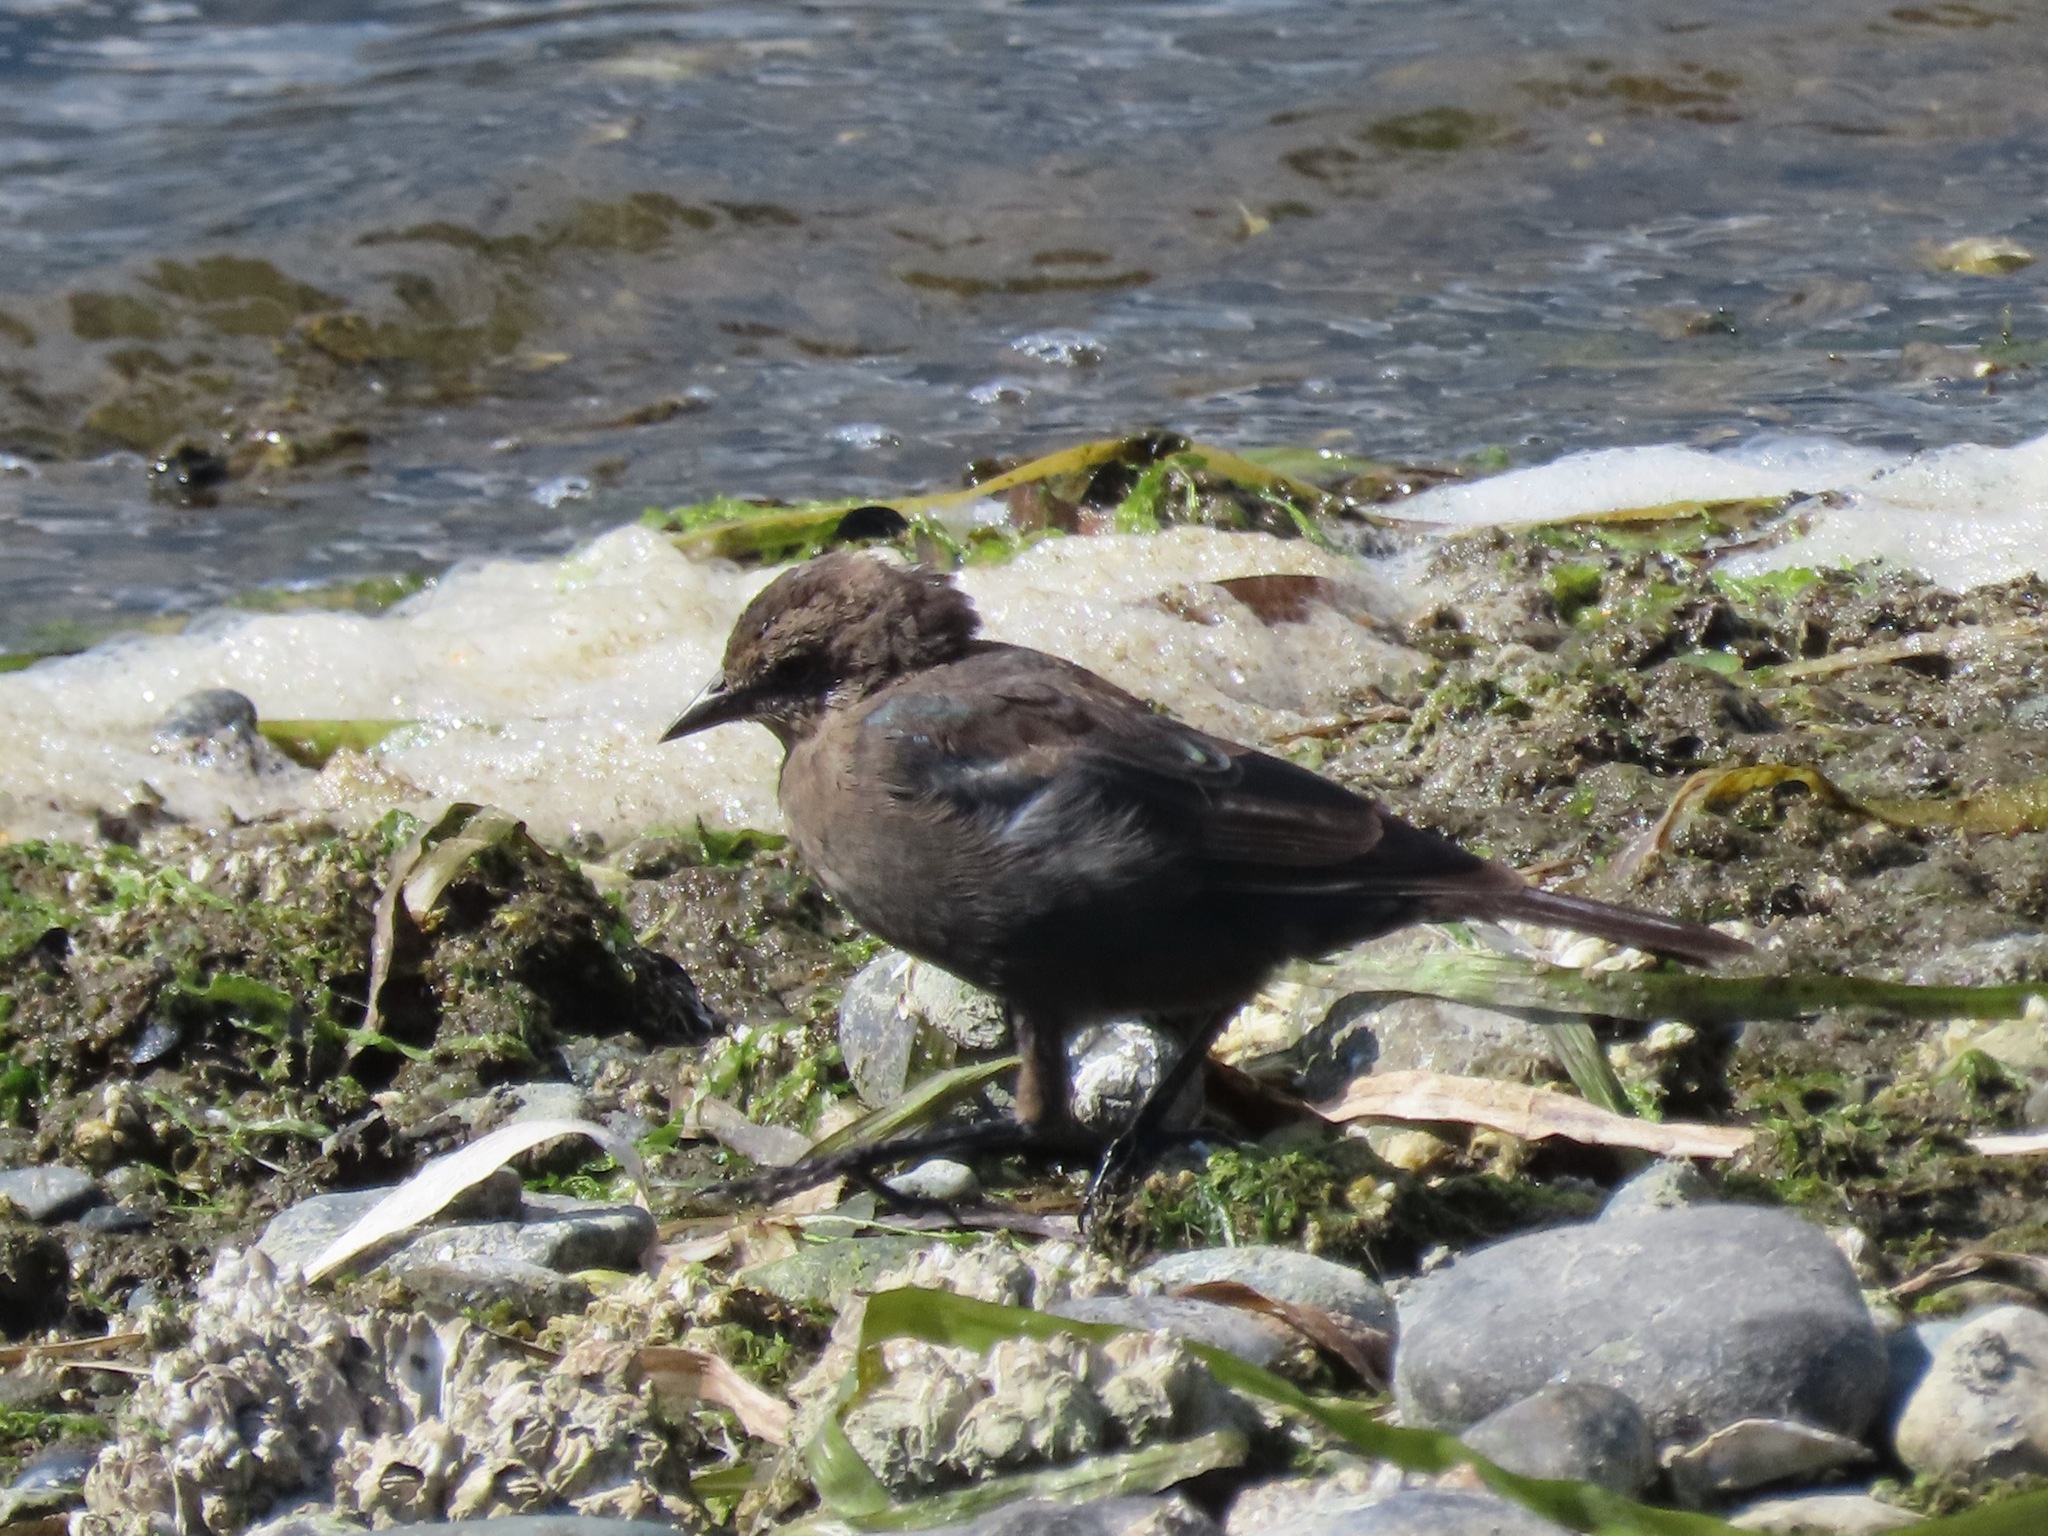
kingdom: Animalia
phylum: Chordata
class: Aves
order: Passeriformes
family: Icteridae
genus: Euphagus
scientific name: Euphagus cyanocephalus
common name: Brewer's blackbird
